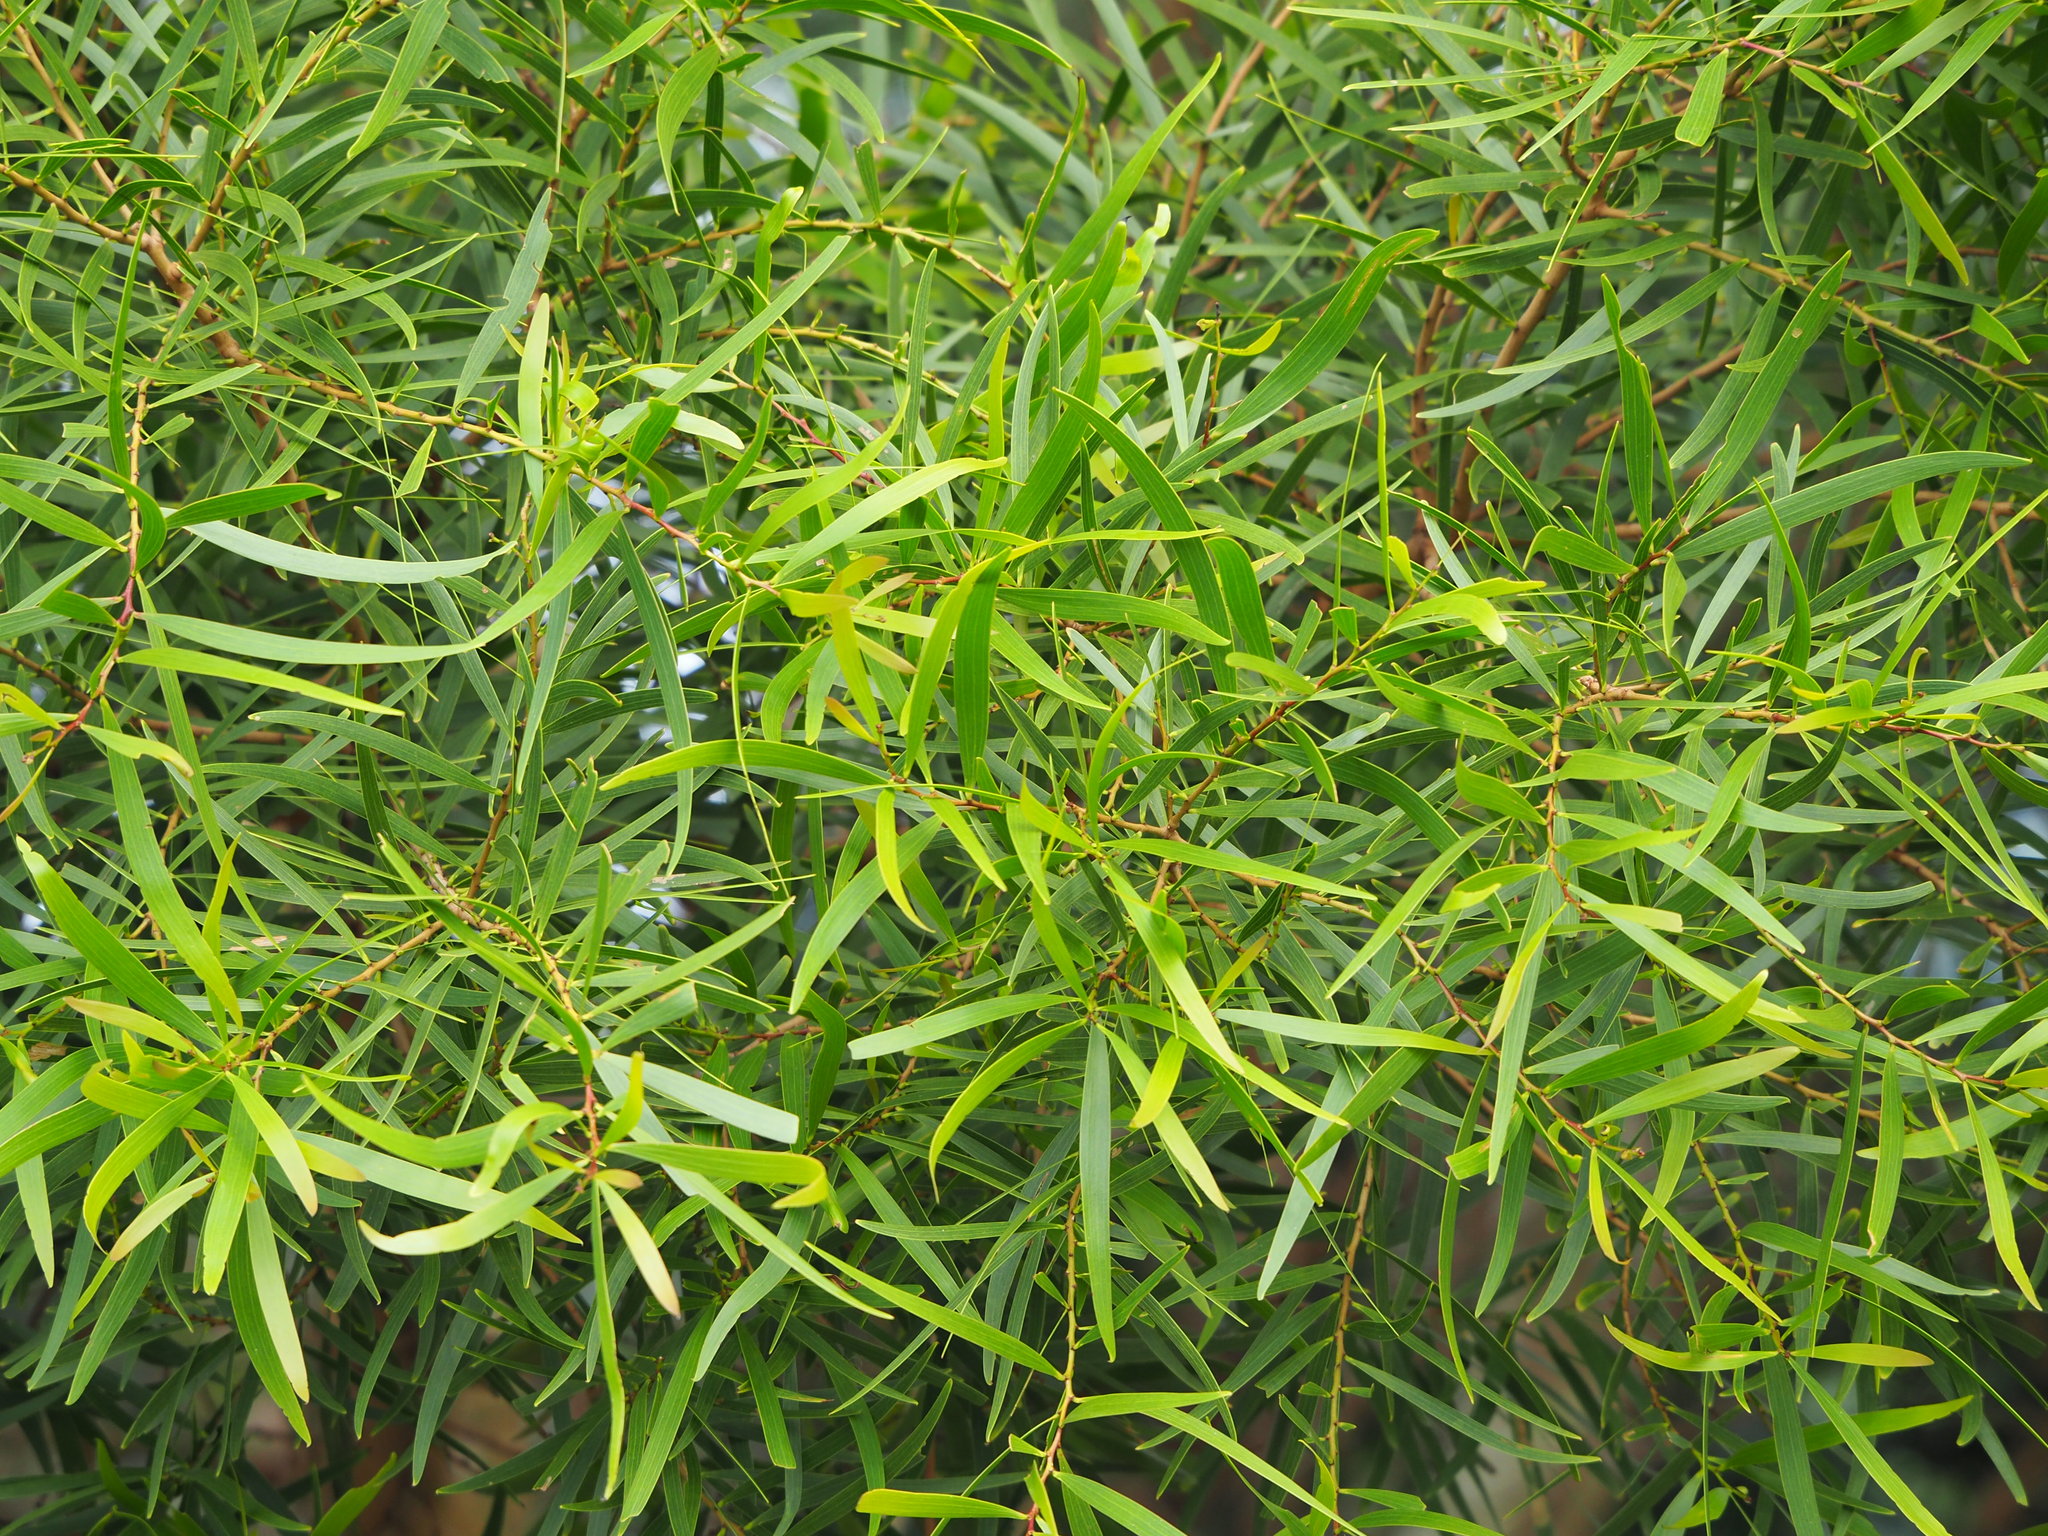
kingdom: Plantae
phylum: Tracheophyta
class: Magnoliopsida
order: Fabales
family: Fabaceae
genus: Acacia
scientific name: Acacia confusa
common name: Formosan koa
